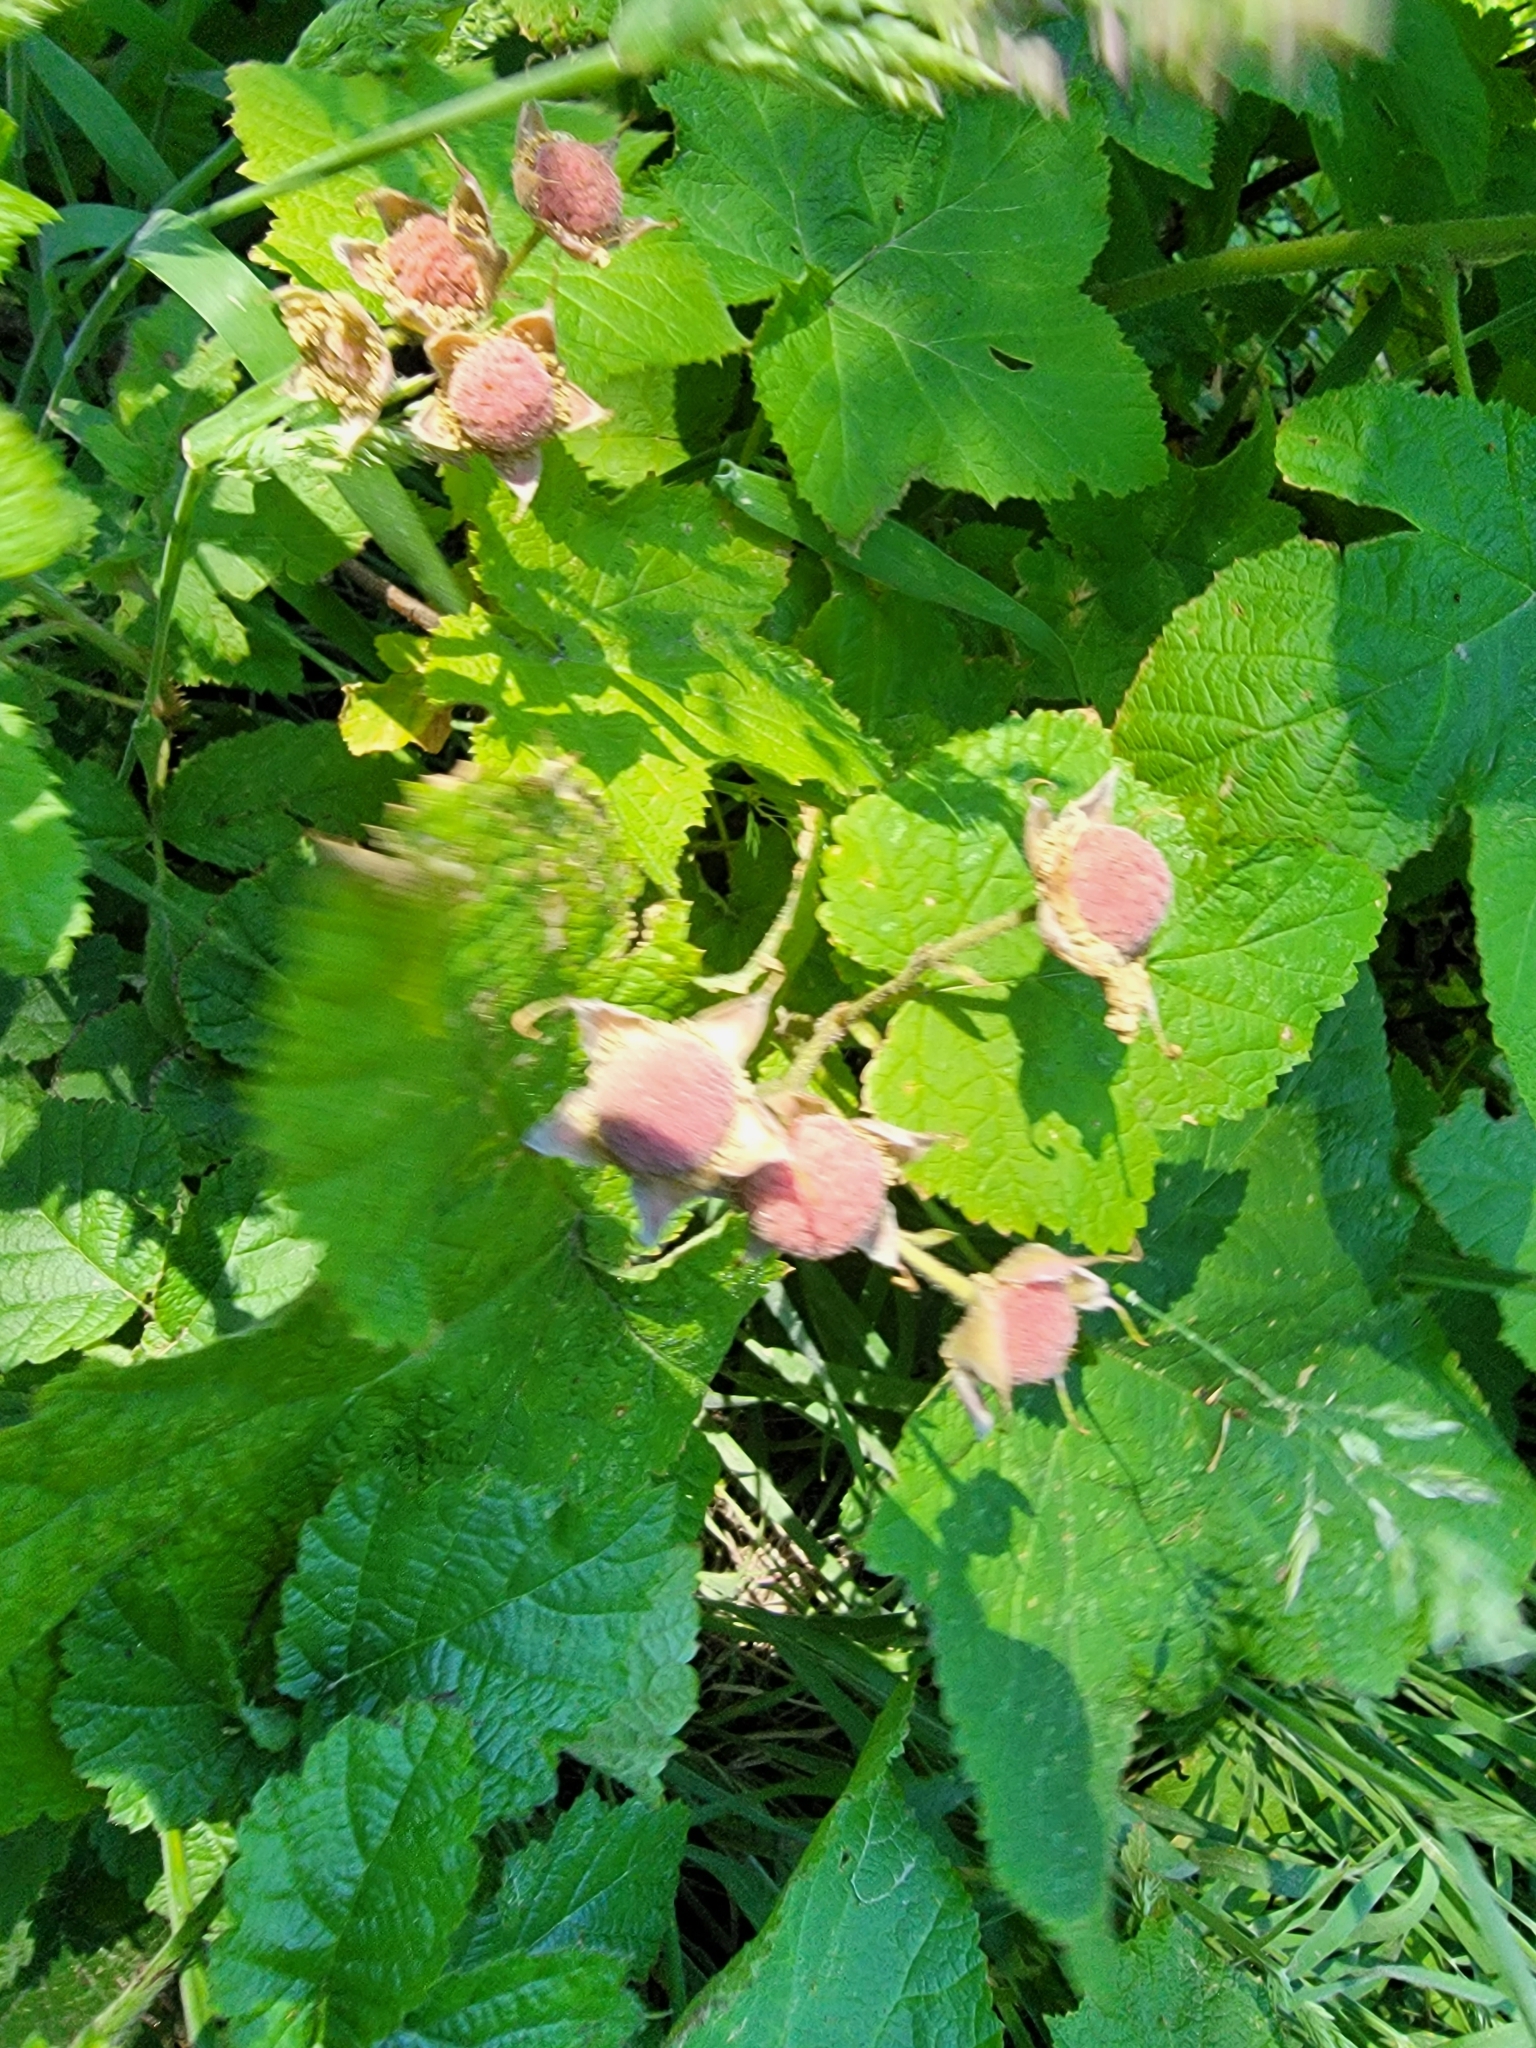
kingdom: Plantae
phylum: Tracheophyta
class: Magnoliopsida
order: Rosales
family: Rosaceae
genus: Rubus
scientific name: Rubus parviflorus
